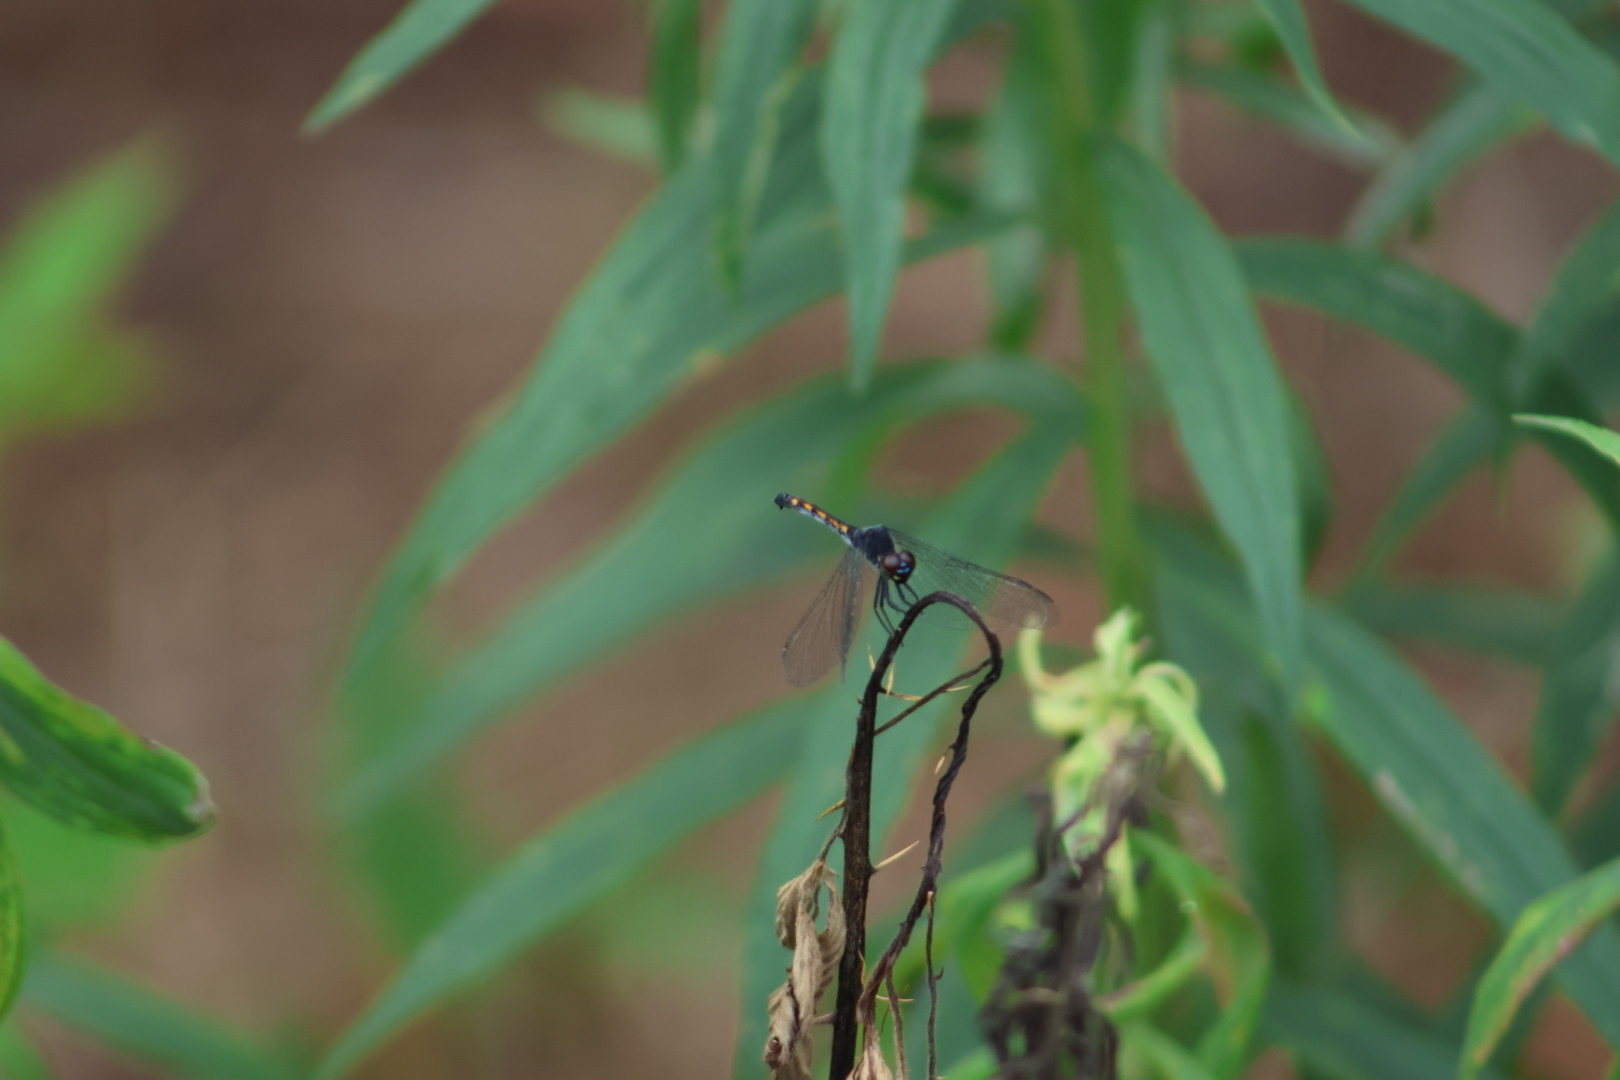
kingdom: Animalia
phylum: Arthropoda
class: Insecta
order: Odonata
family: Libellulidae
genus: Erythrodiplax
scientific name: Erythrodiplax berenice
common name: Seaside dragonlet
